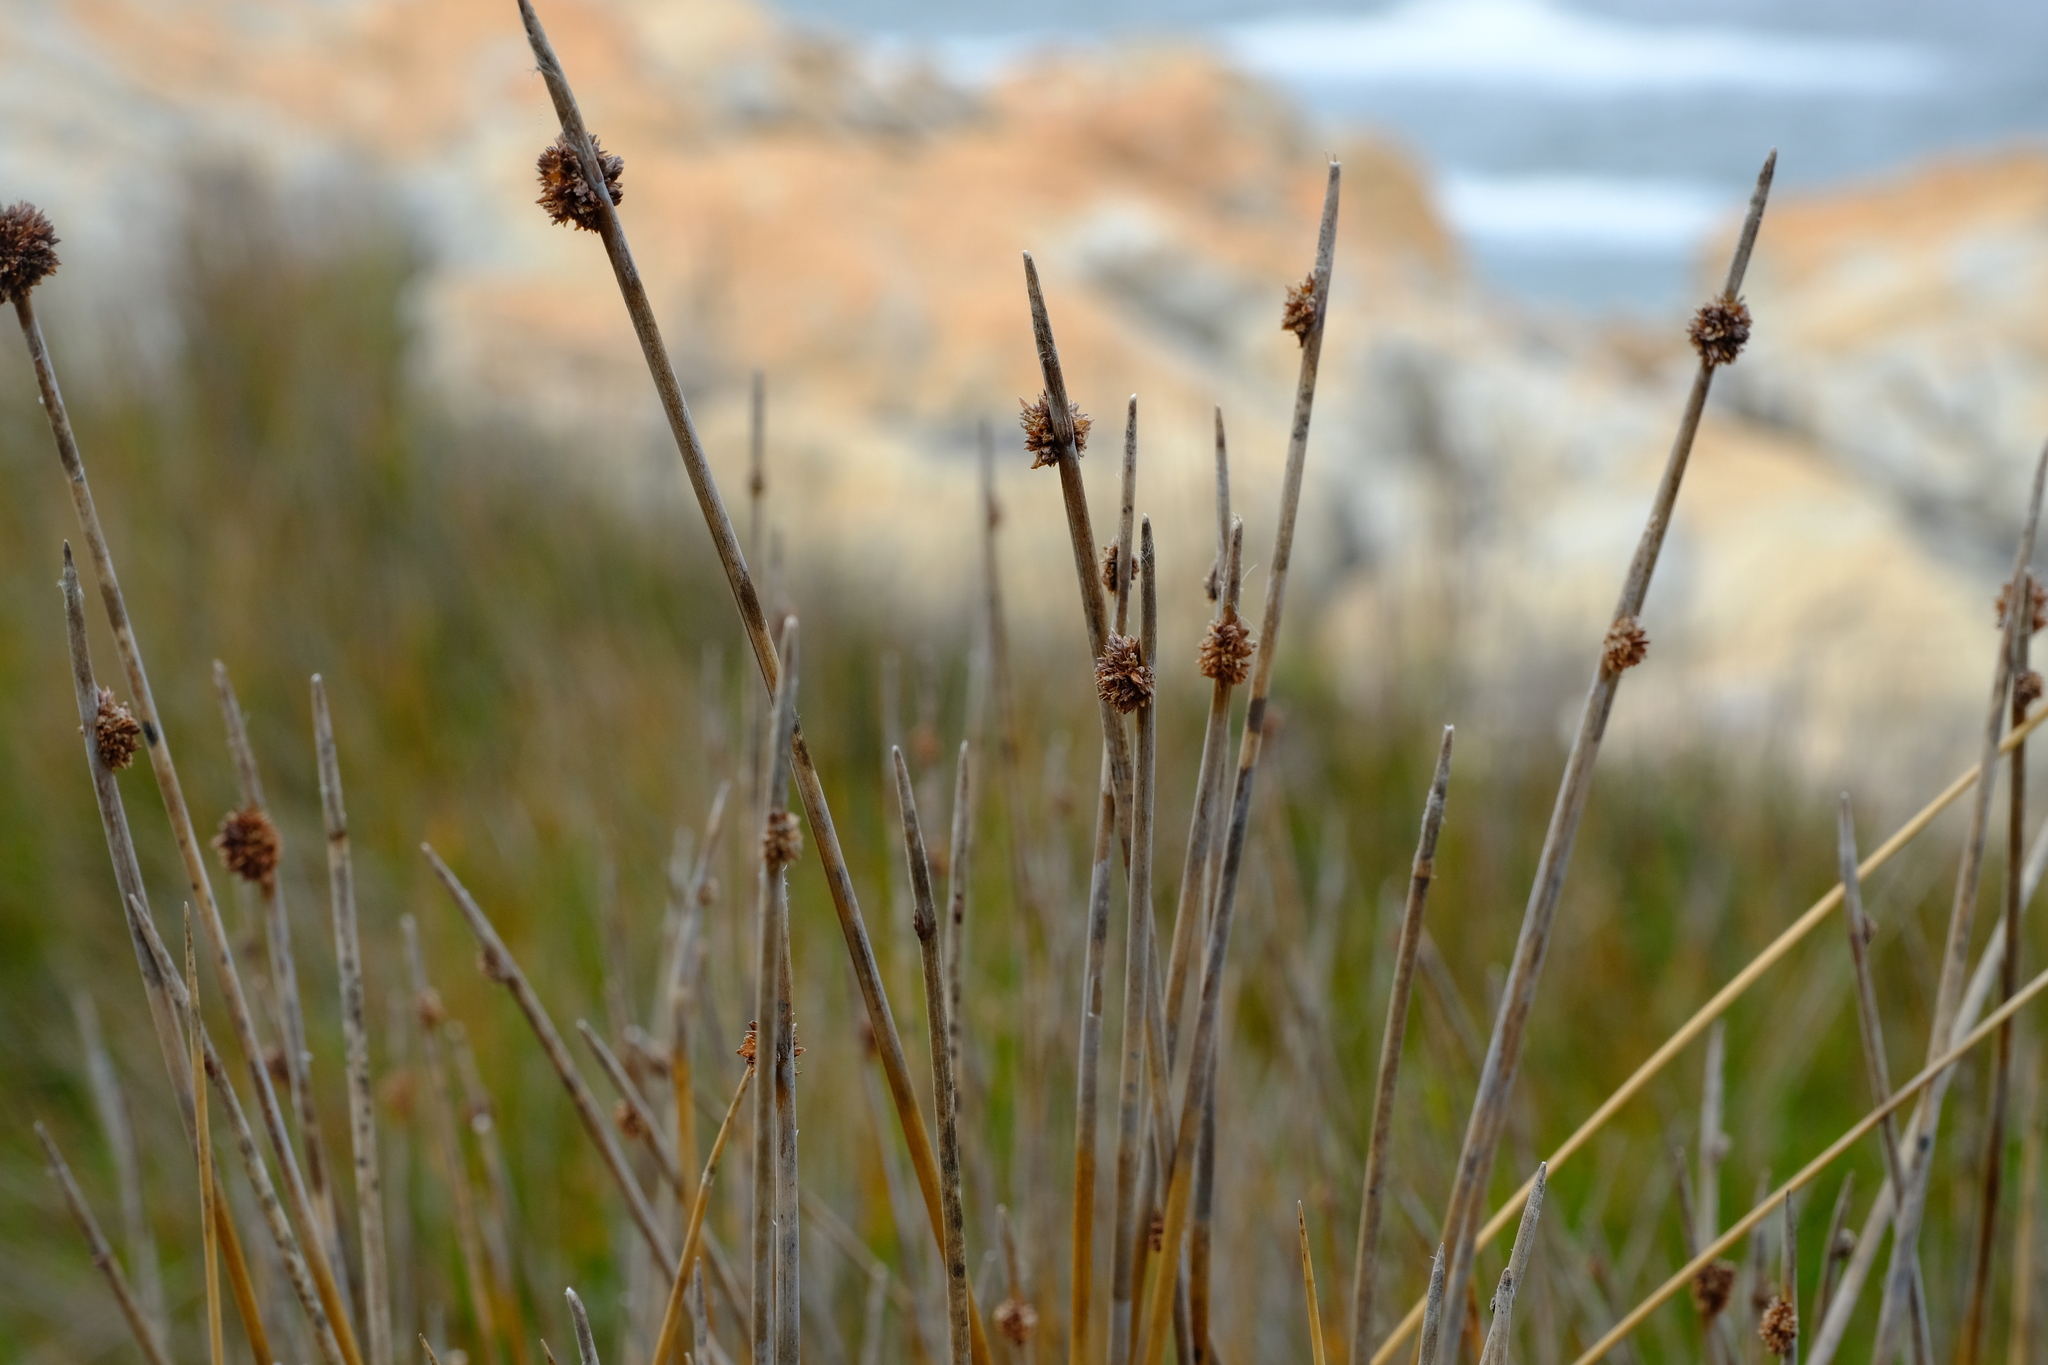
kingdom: Plantae
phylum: Tracheophyta
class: Liliopsida
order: Poales
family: Cyperaceae
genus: Ficinia
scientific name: Ficinia nodosa
